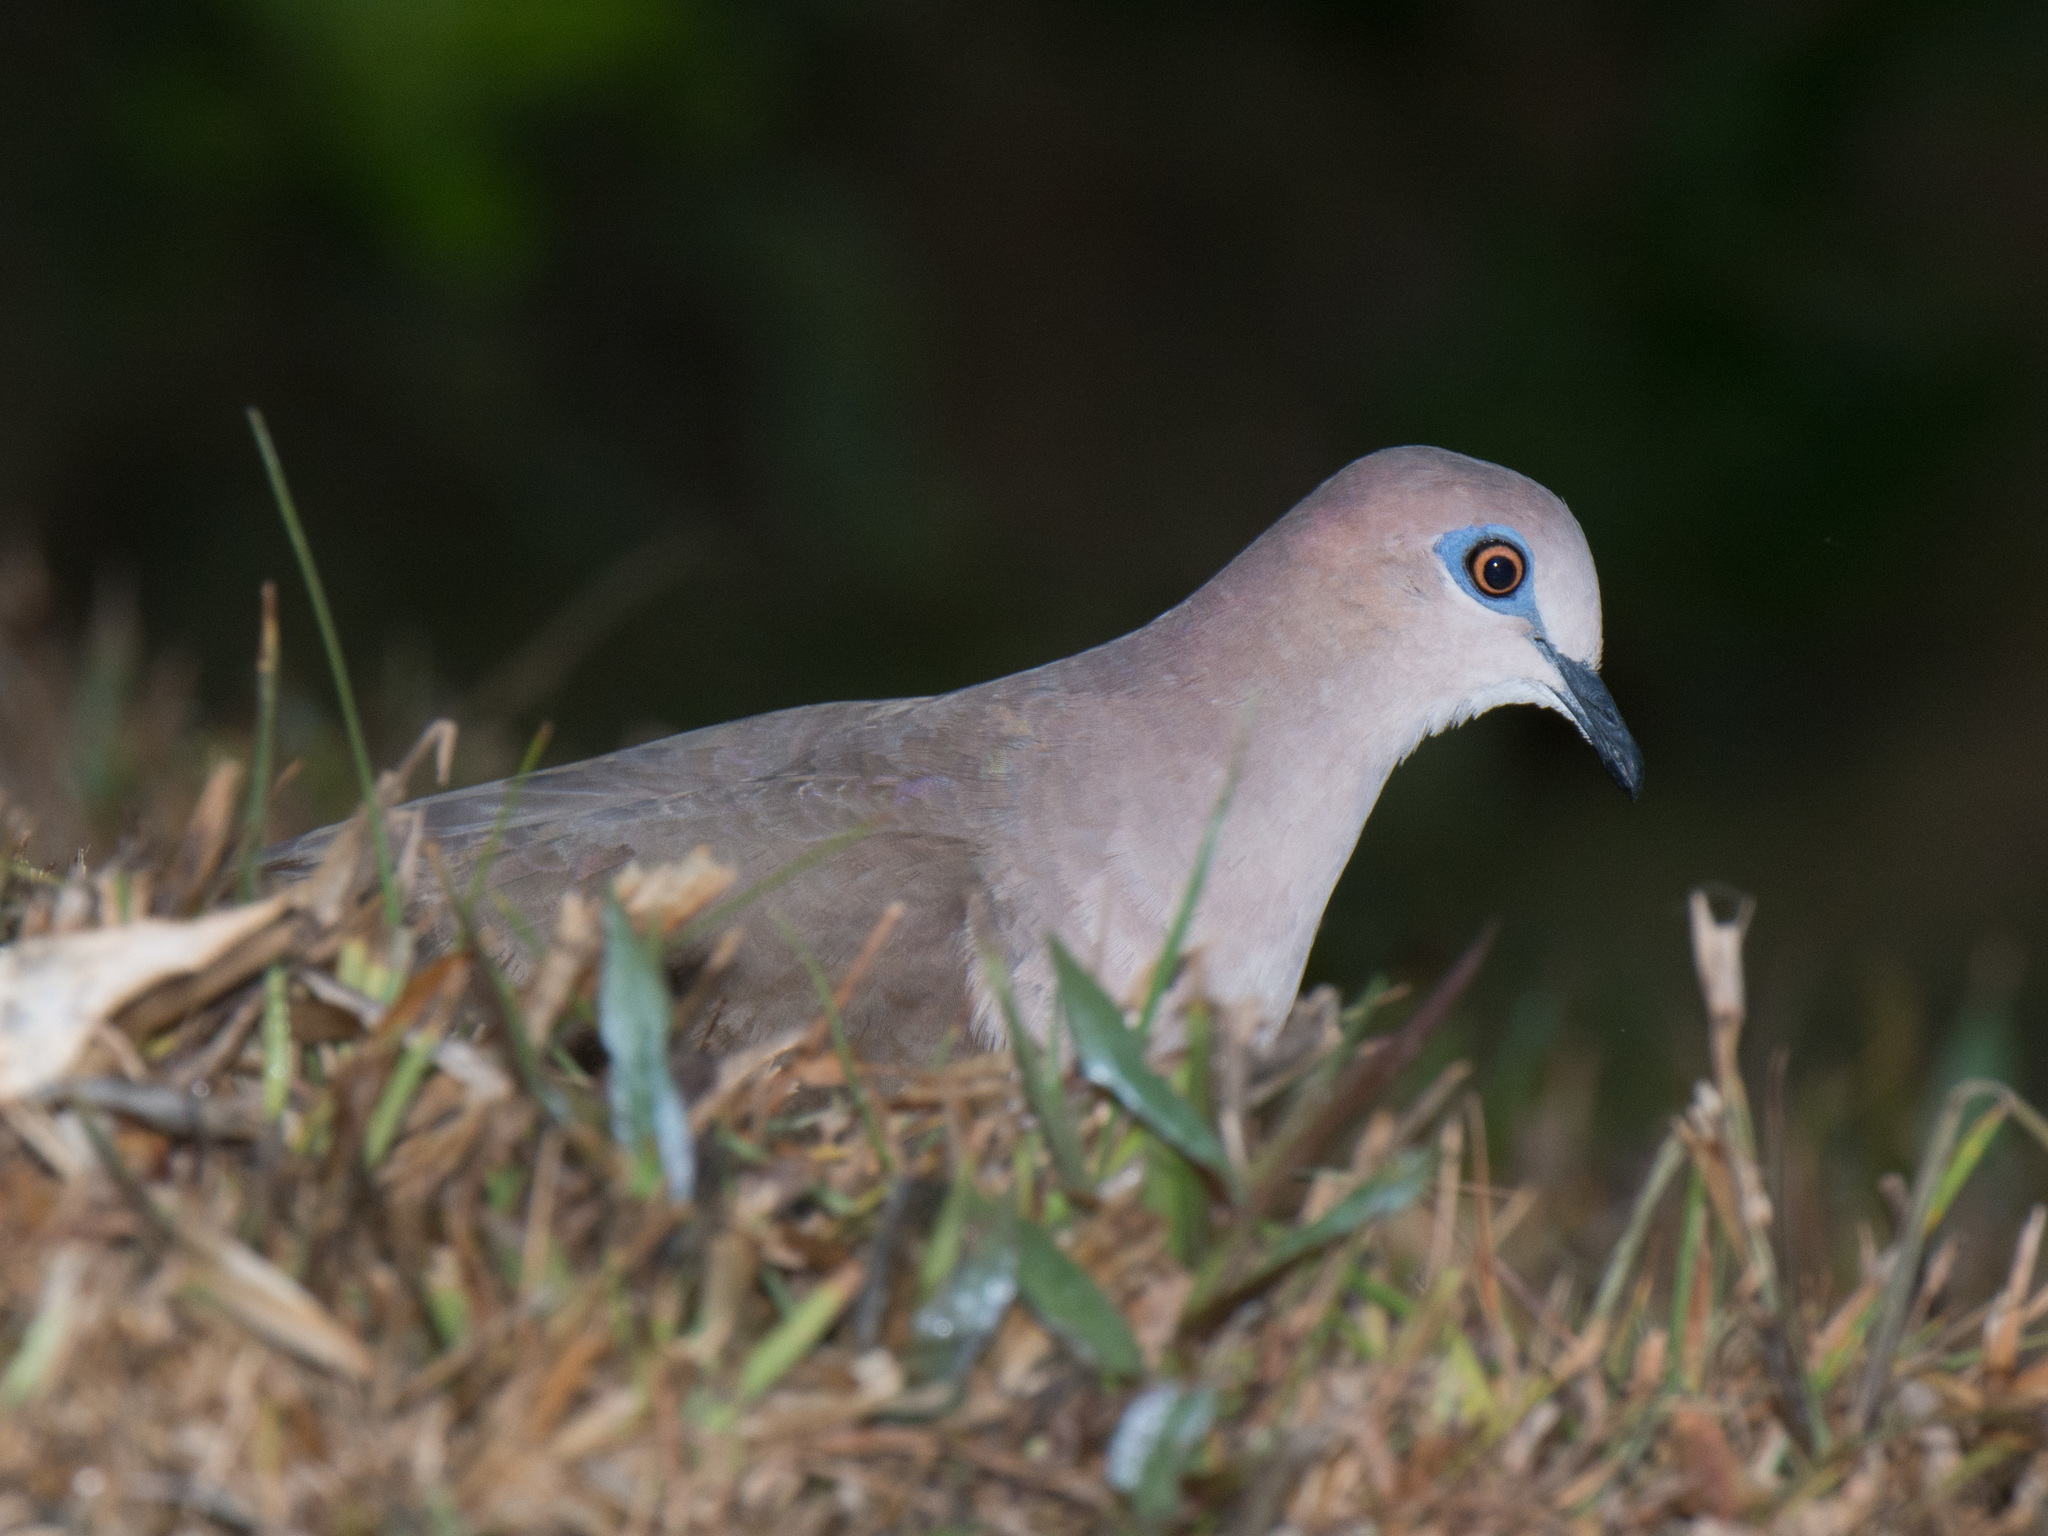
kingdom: Animalia
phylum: Chordata
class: Aves
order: Columbiformes
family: Columbidae
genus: Leptotila
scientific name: Leptotila verreauxi
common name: White-tipped dove
